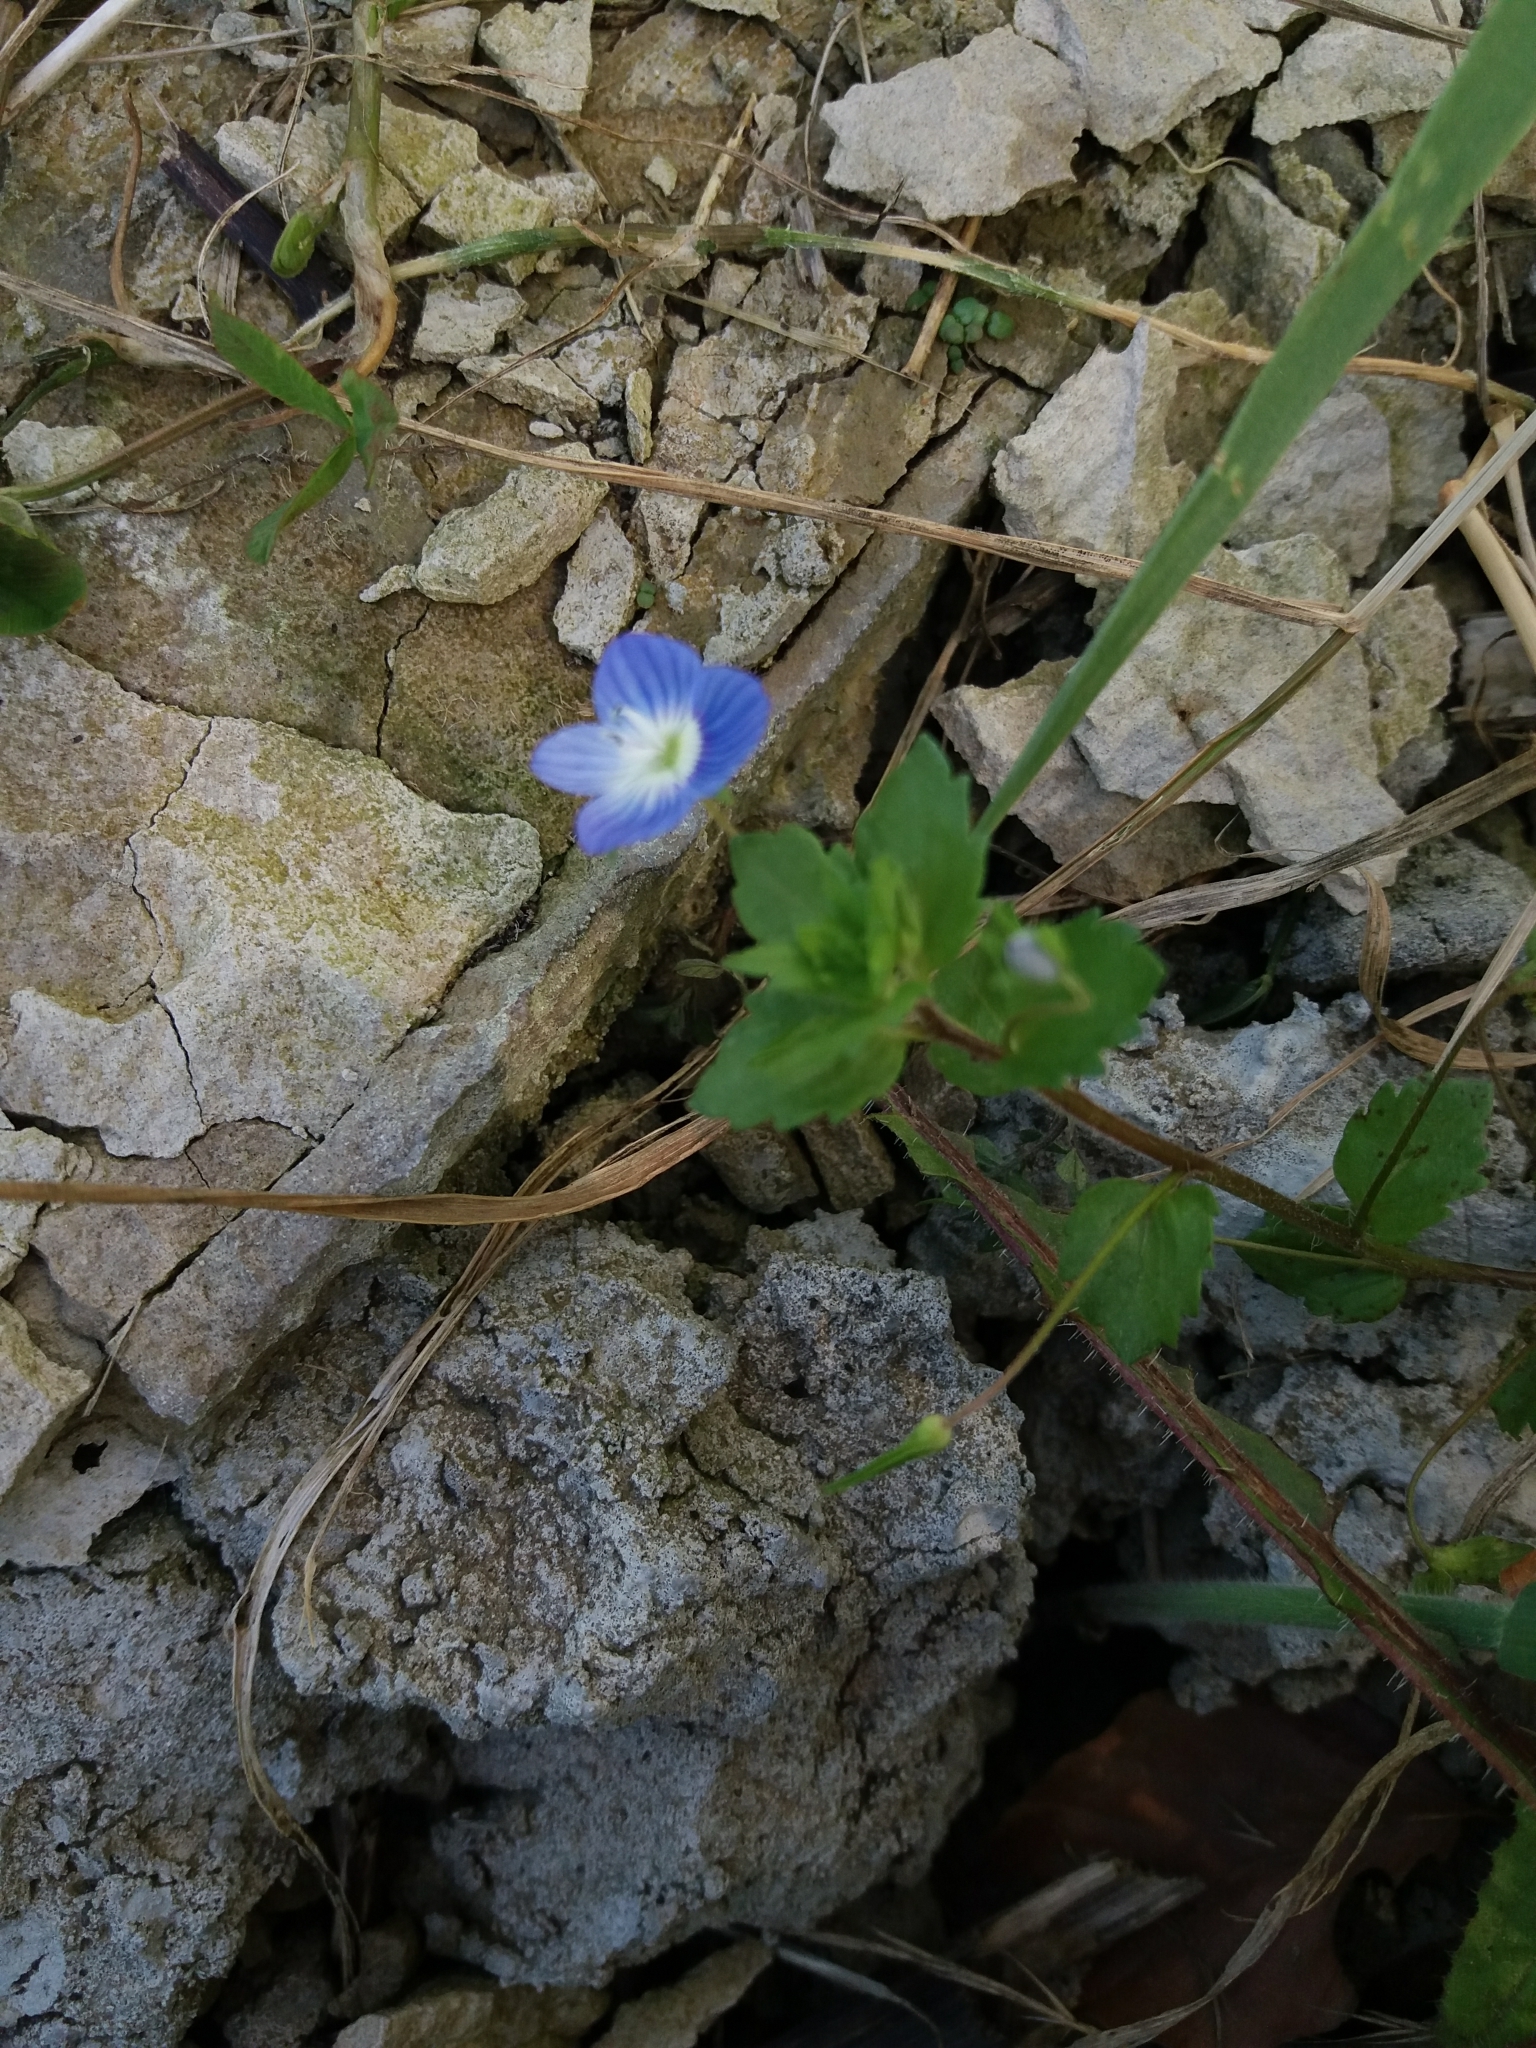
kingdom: Plantae
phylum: Tracheophyta
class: Magnoliopsida
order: Lamiales
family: Plantaginaceae
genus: Veronica
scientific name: Veronica persica
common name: Common field-speedwell
